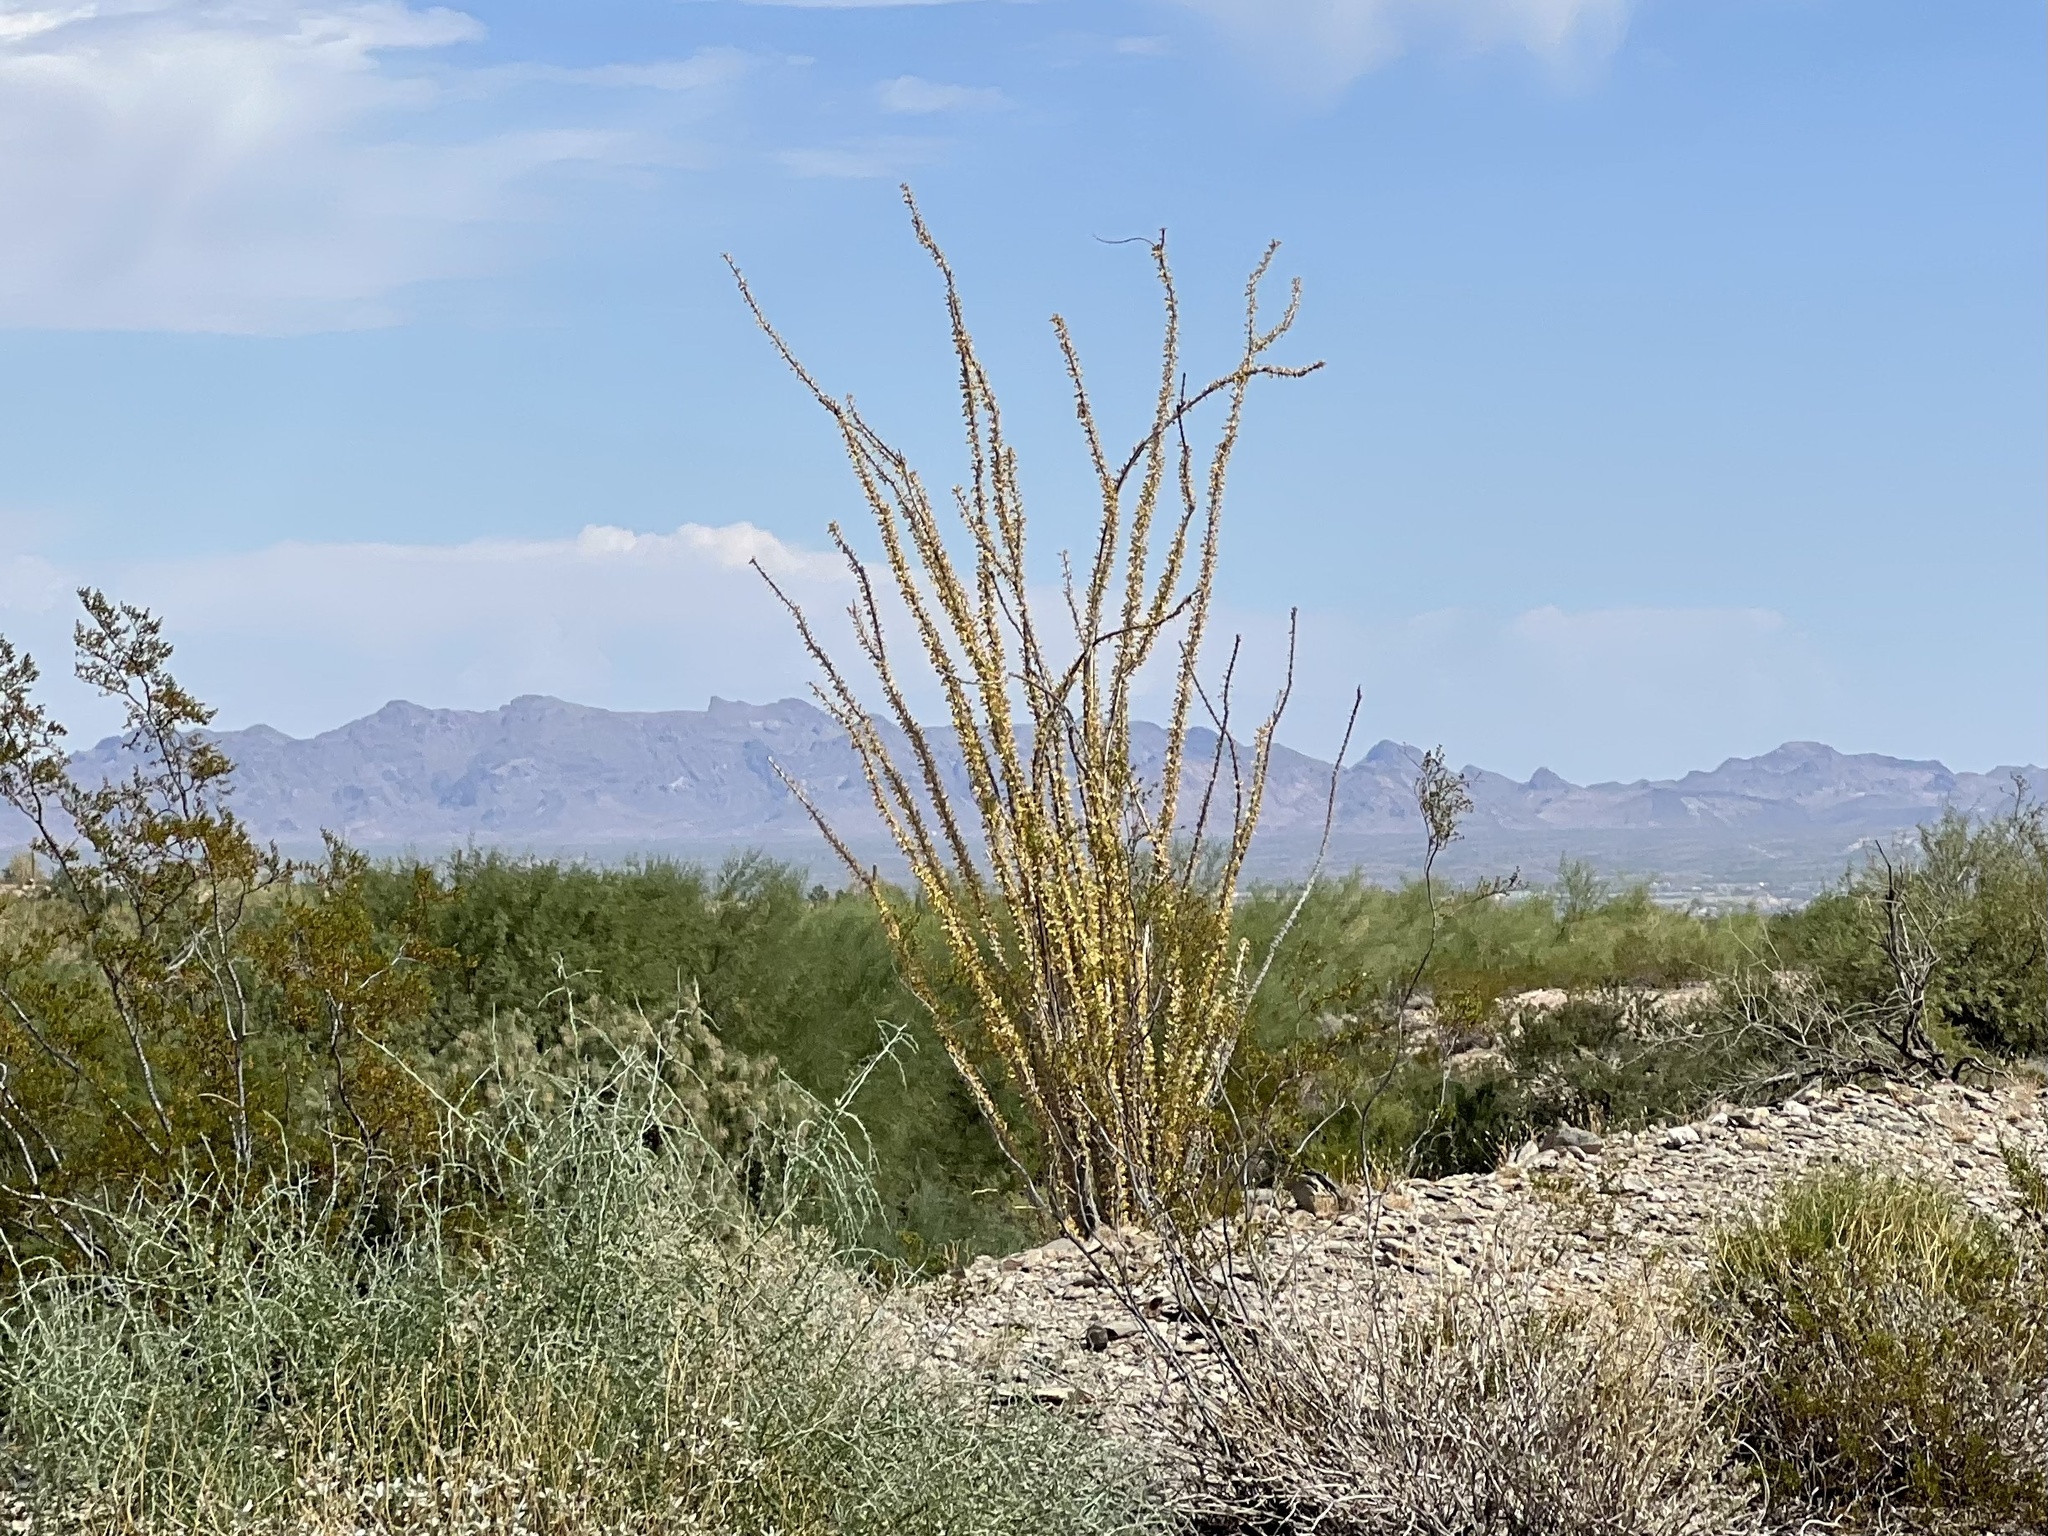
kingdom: Plantae
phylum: Tracheophyta
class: Magnoliopsida
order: Ericales
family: Fouquieriaceae
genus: Fouquieria
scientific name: Fouquieria splendens
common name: Vine-cactus
